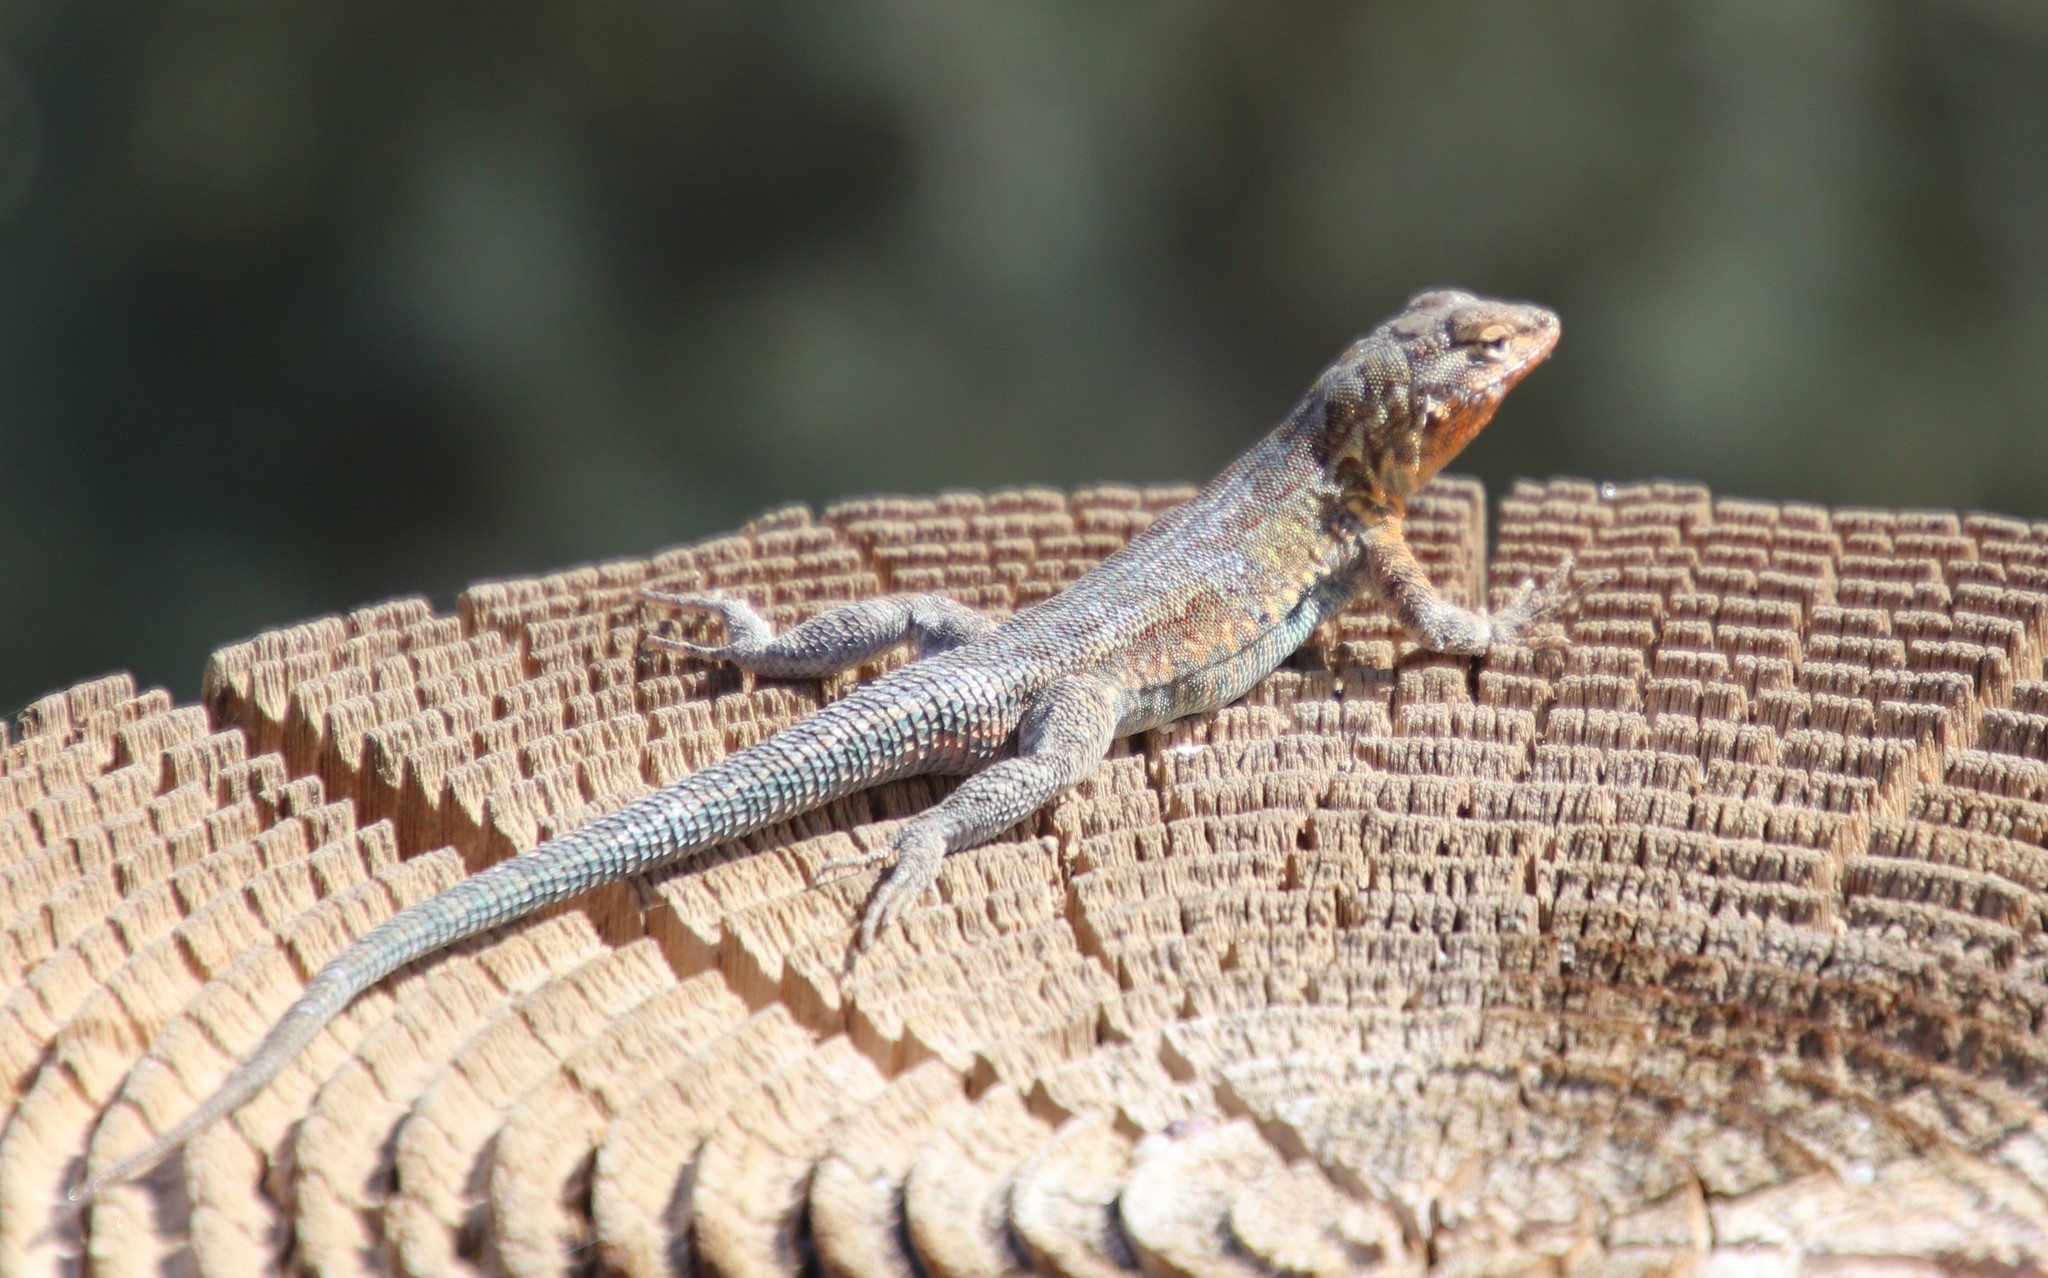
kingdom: Animalia
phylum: Chordata
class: Squamata
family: Phrynosomatidae
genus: Uta
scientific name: Uta stansburiana
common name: Side-blotched lizard
